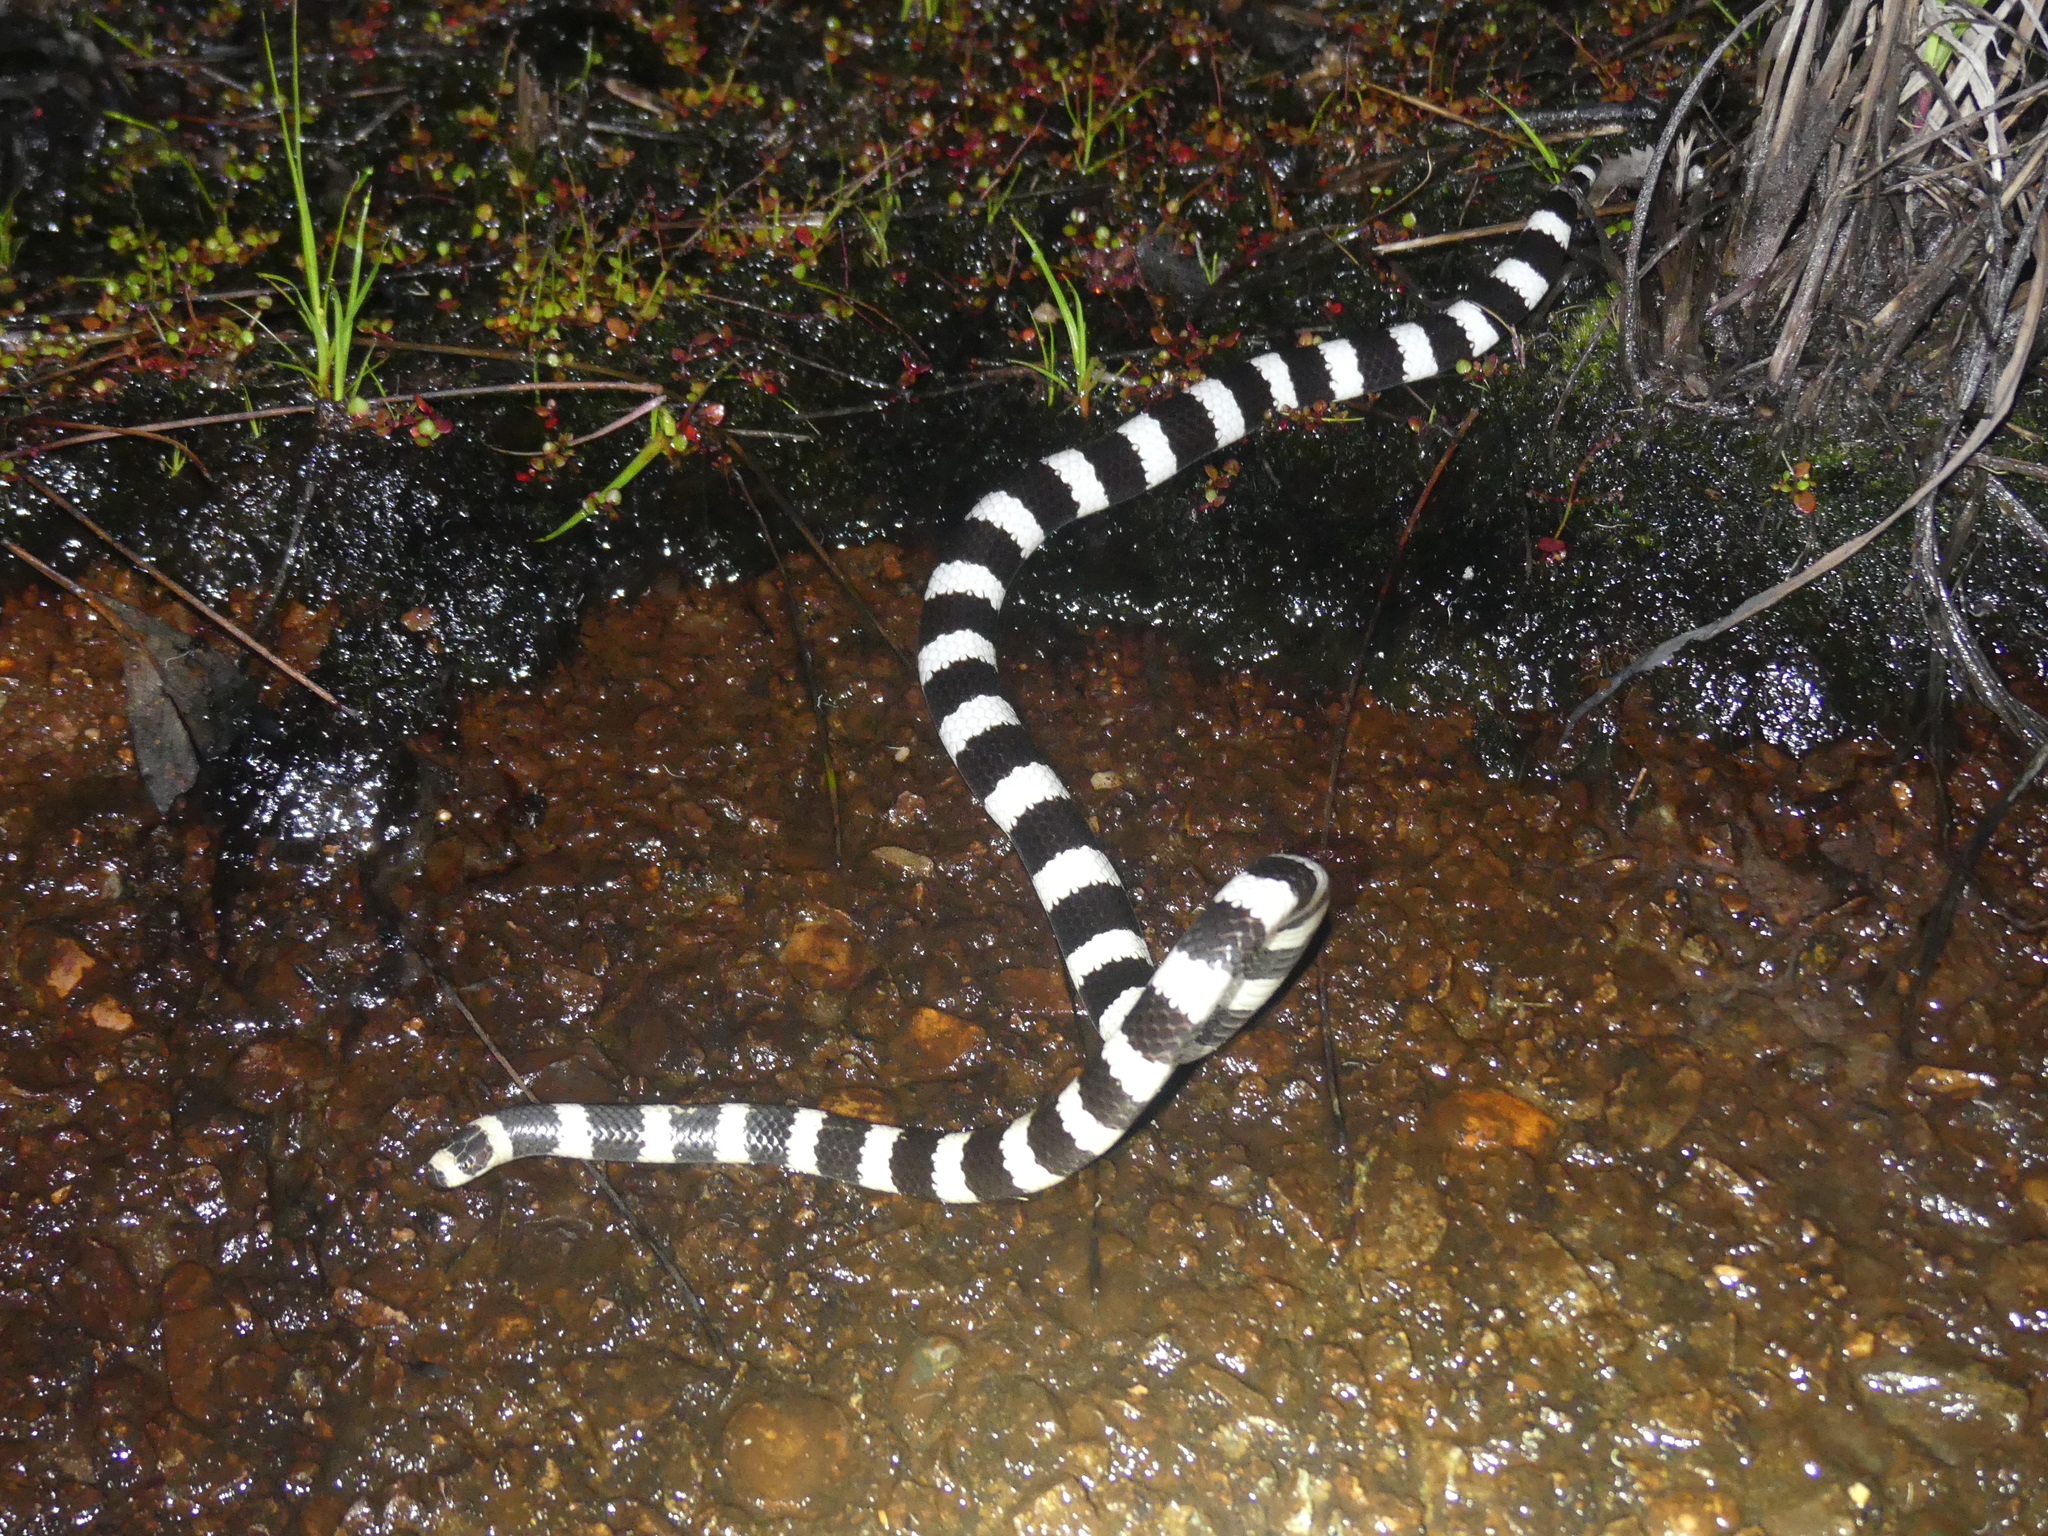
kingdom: Animalia
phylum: Chordata
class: Squamata
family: Elapidae
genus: Vermicella
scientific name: Vermicella annulata
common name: Bandy bandy
